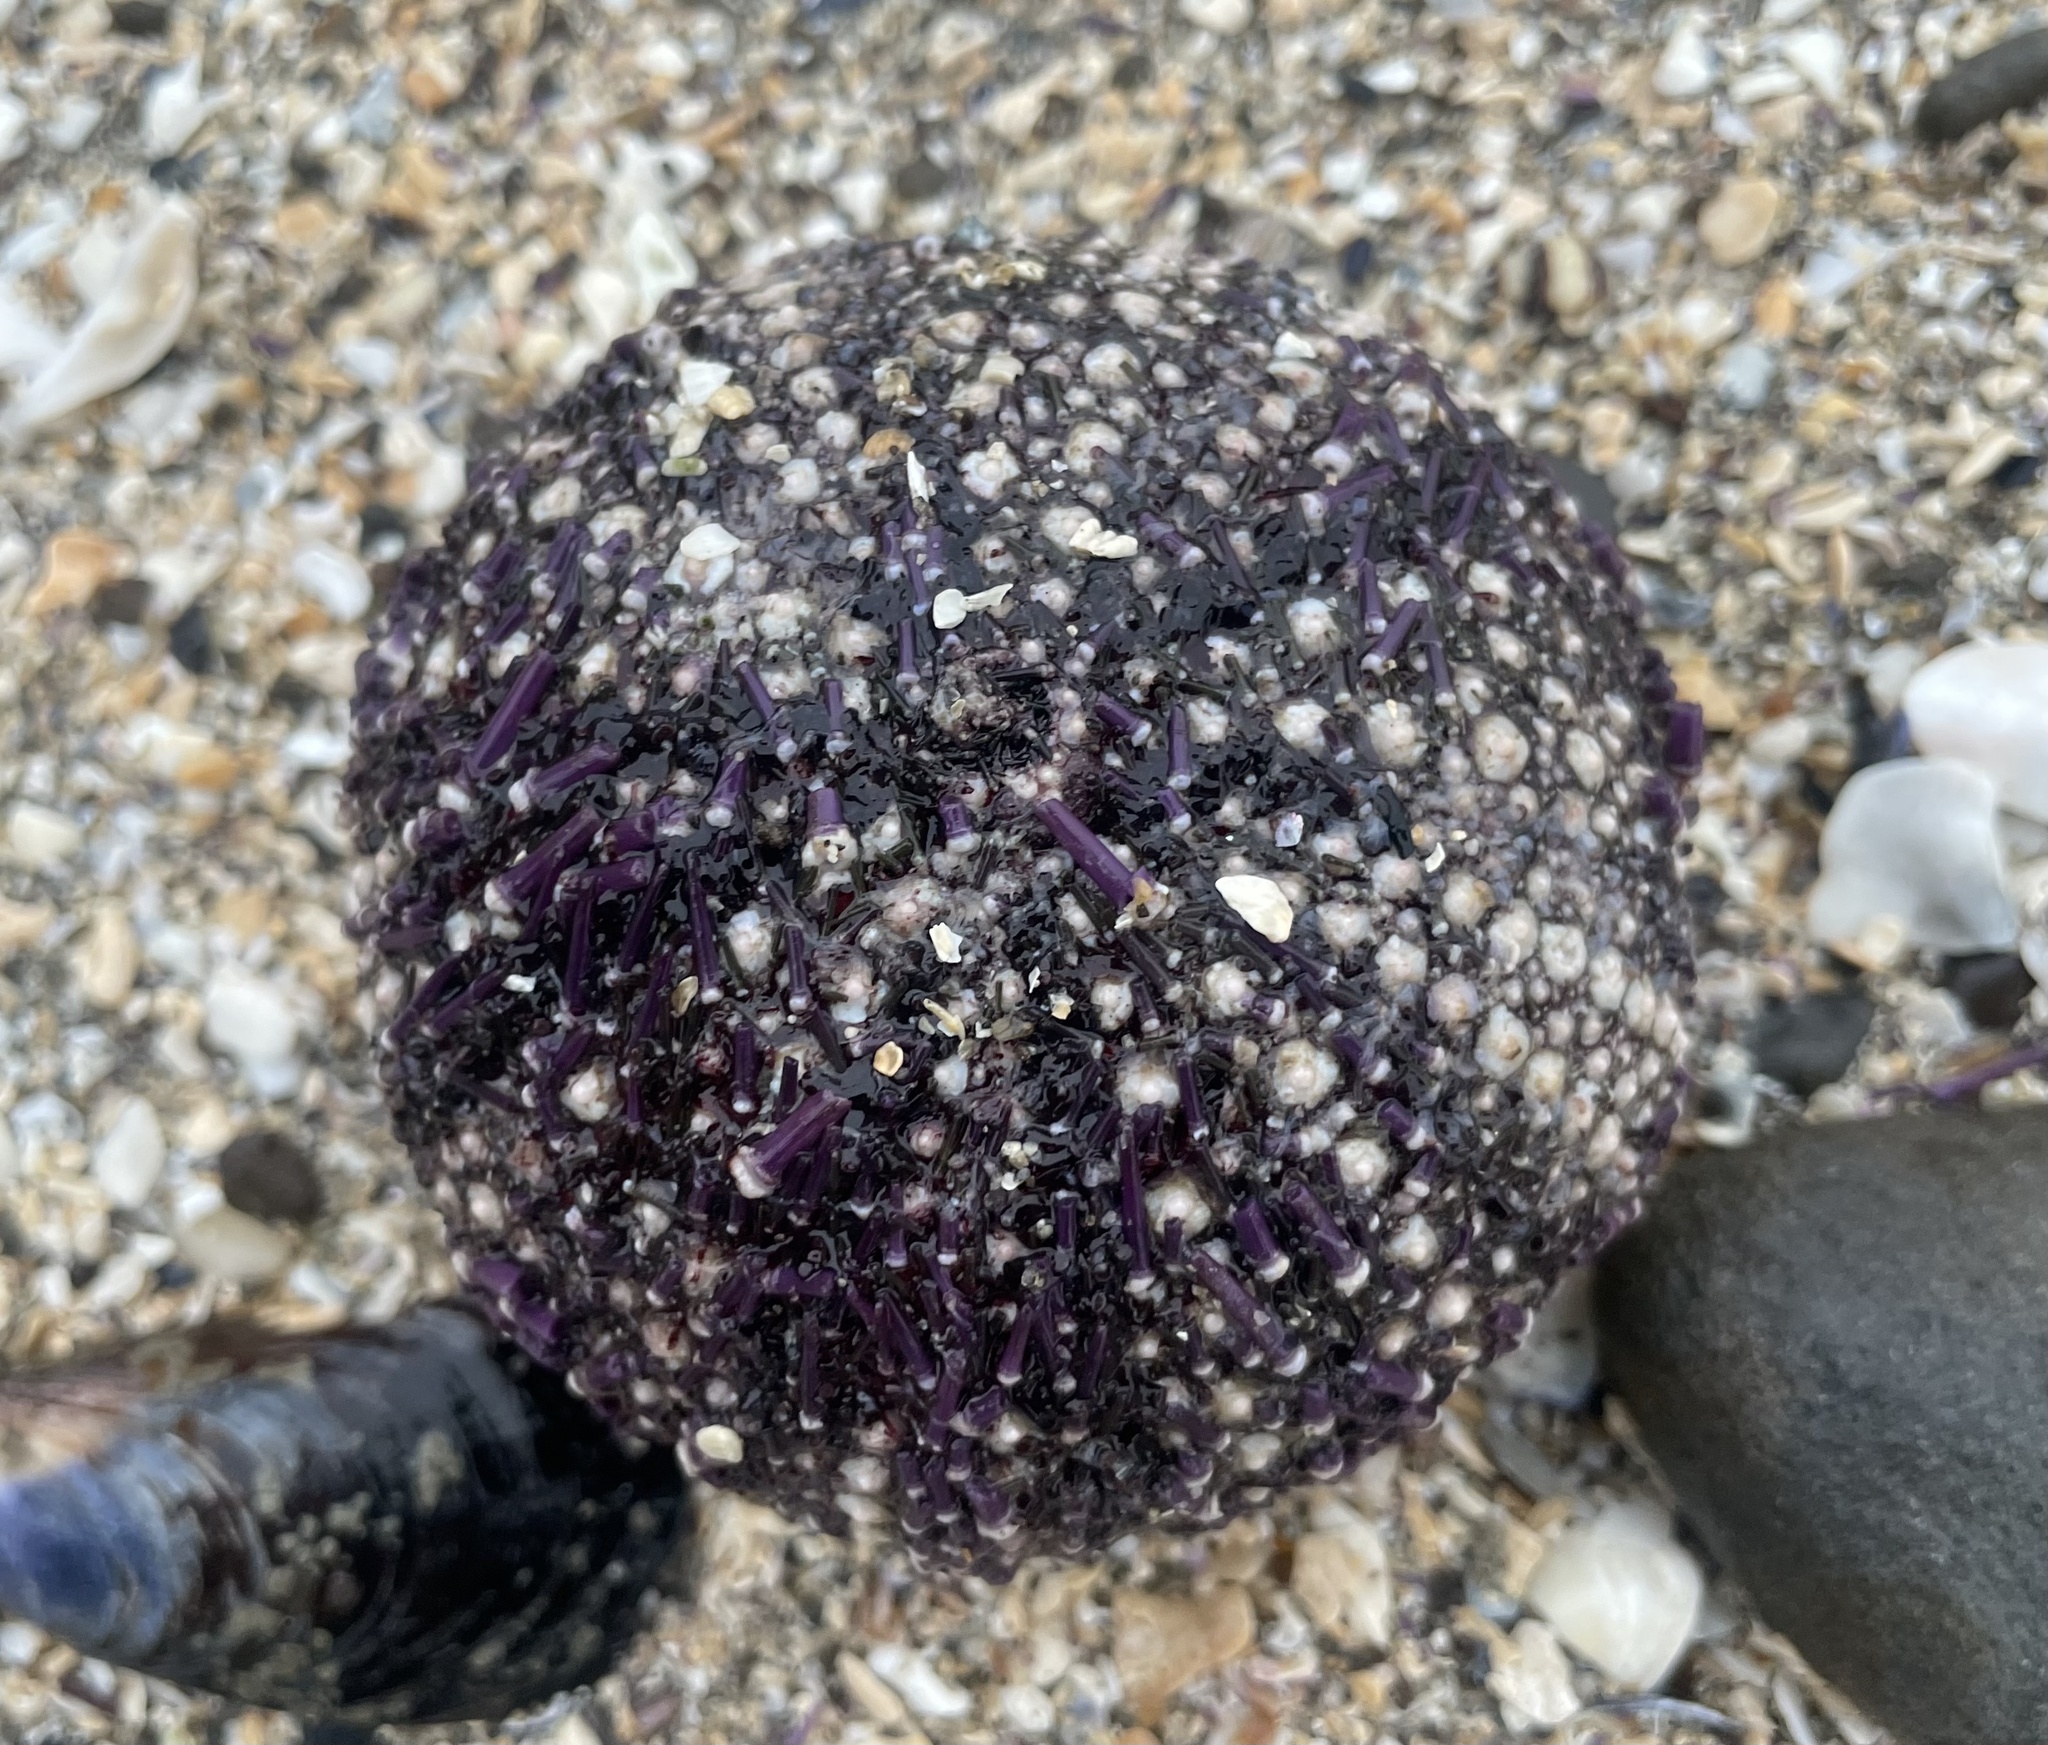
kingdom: Animalia
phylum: Echinodermata
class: Echinoidea
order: Camarodonta
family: Strongylocentrotidae
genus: Strongylocentrotus
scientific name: Strongylocentrotus purpuratus
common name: Purple sea urchin
